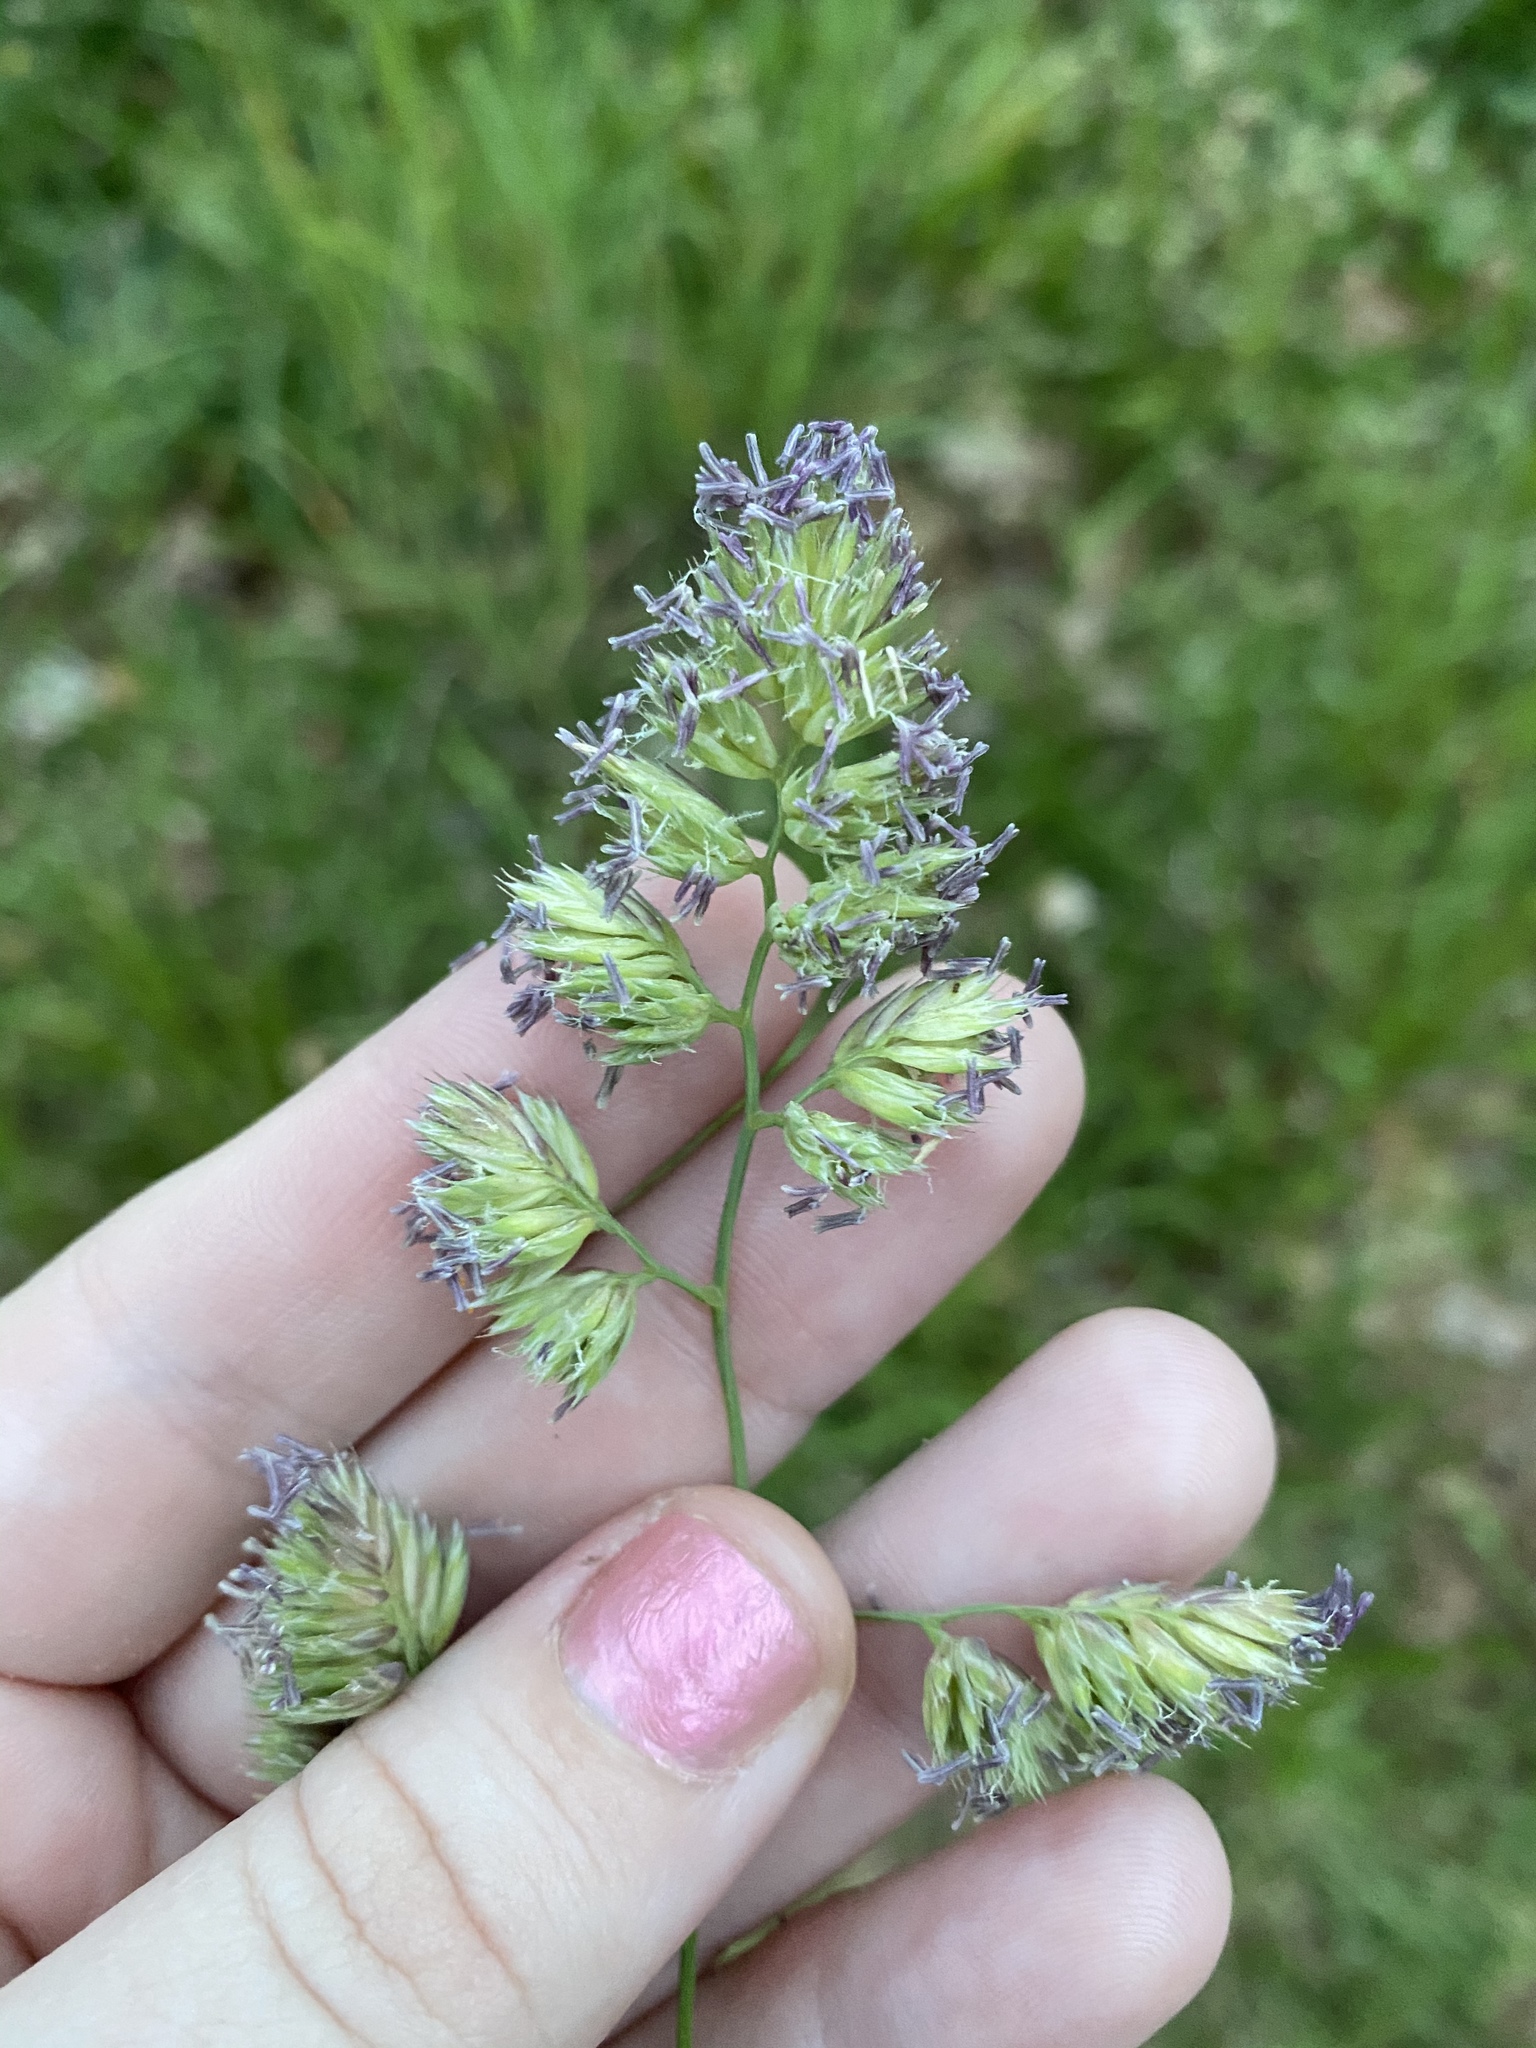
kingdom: Plantae
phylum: Tracheophyta
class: Liliopsida
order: Poales
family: Poaceae
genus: Dactylis
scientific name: Dactylis glomerata
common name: Orchardgrass
